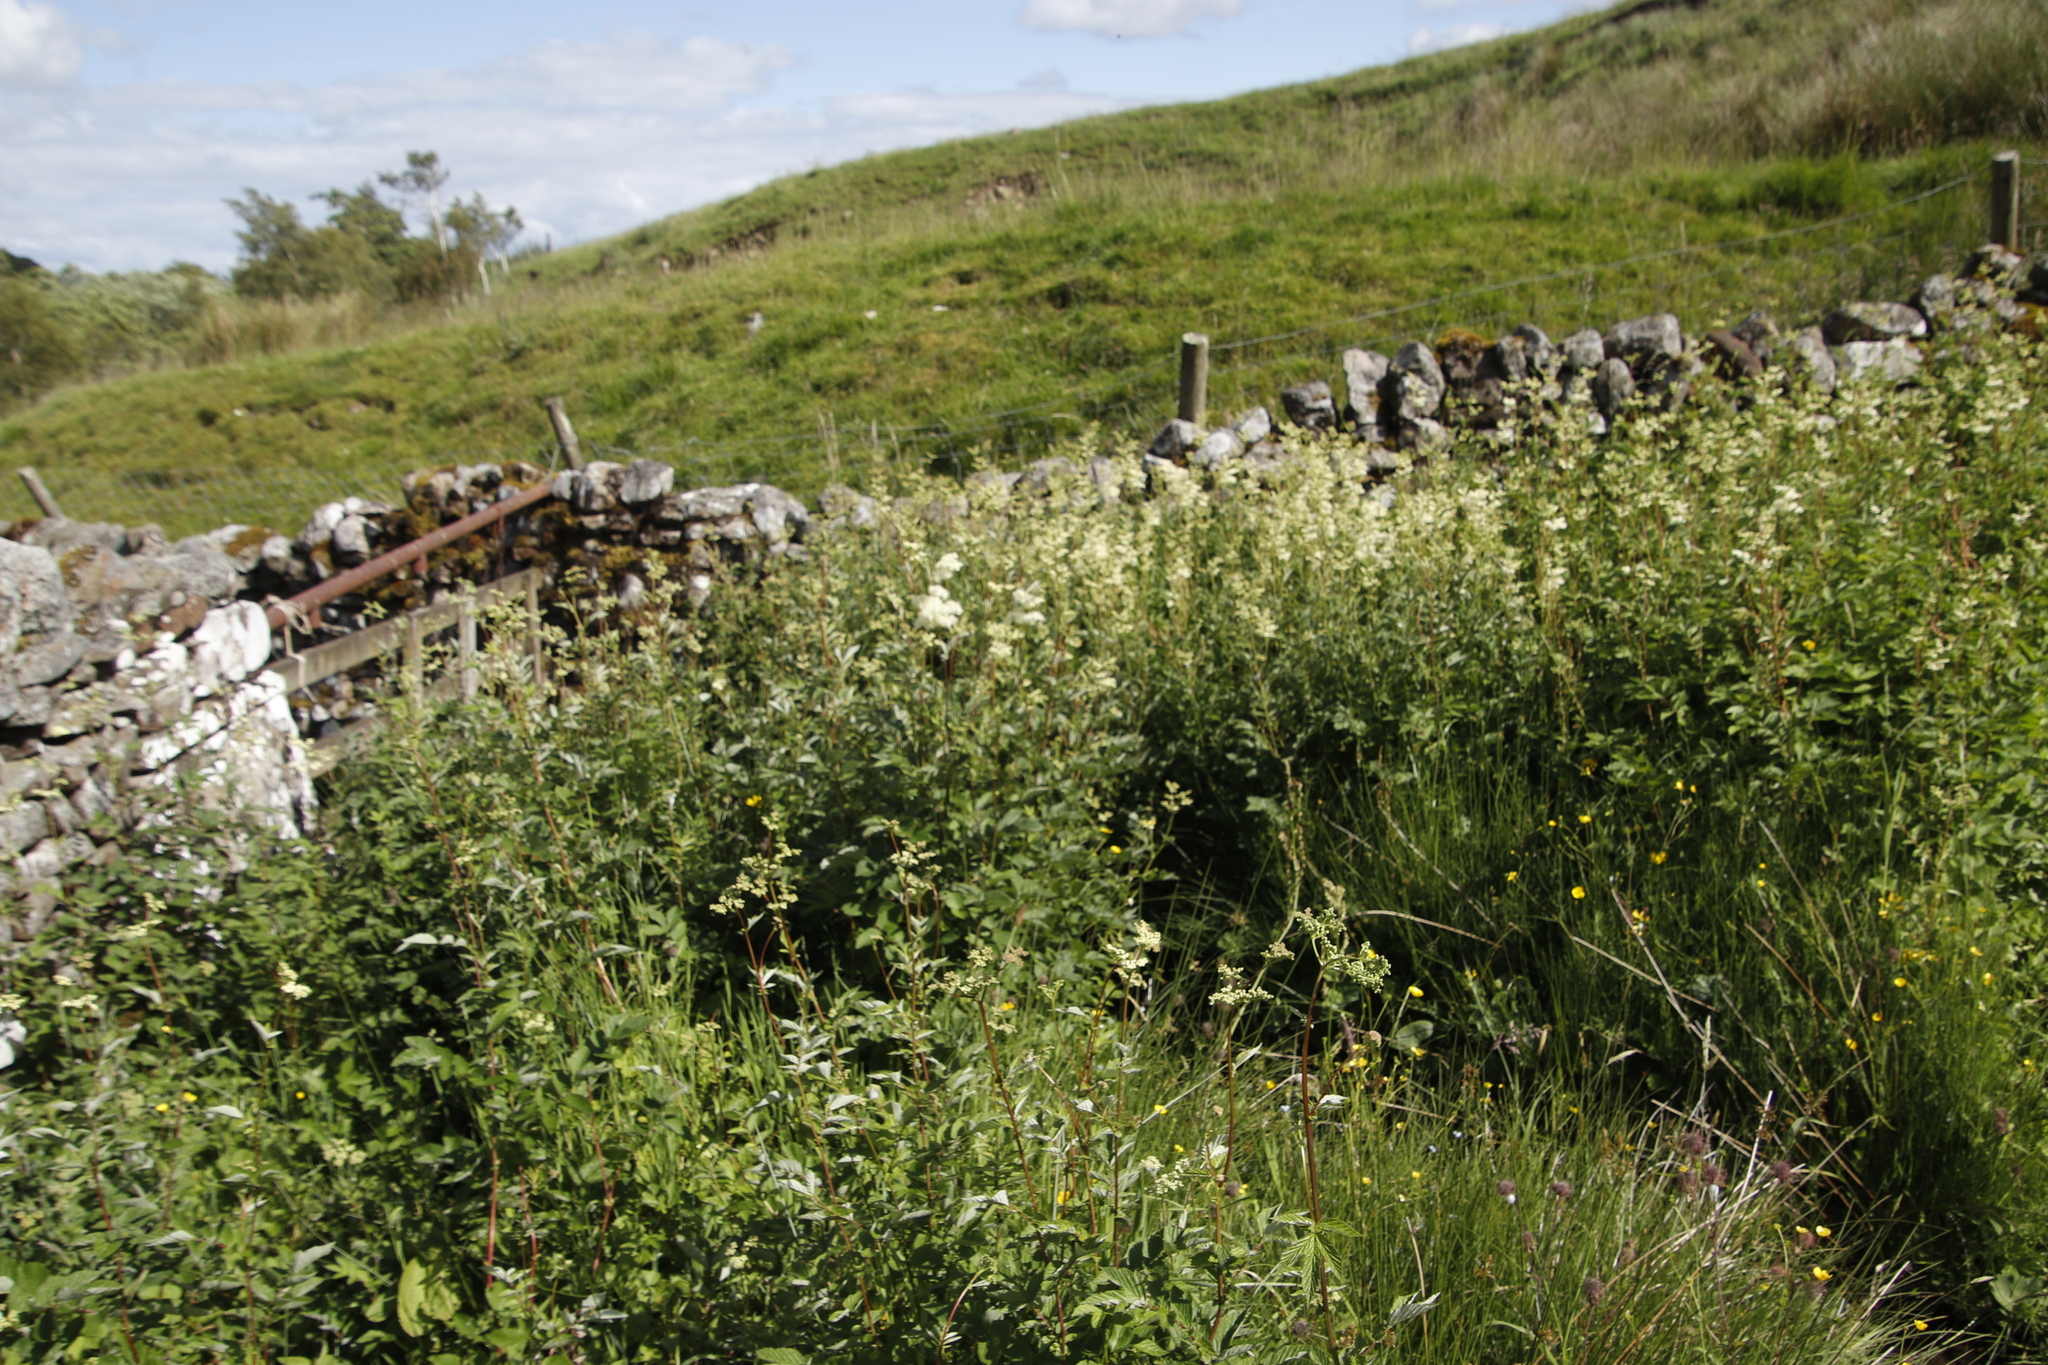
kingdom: Plantae
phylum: Tracheophyta
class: Magnoliopsida
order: Rosales
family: Rosaceae
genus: Filipendula
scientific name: Filipendula ulmaria
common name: Meadowsweet
